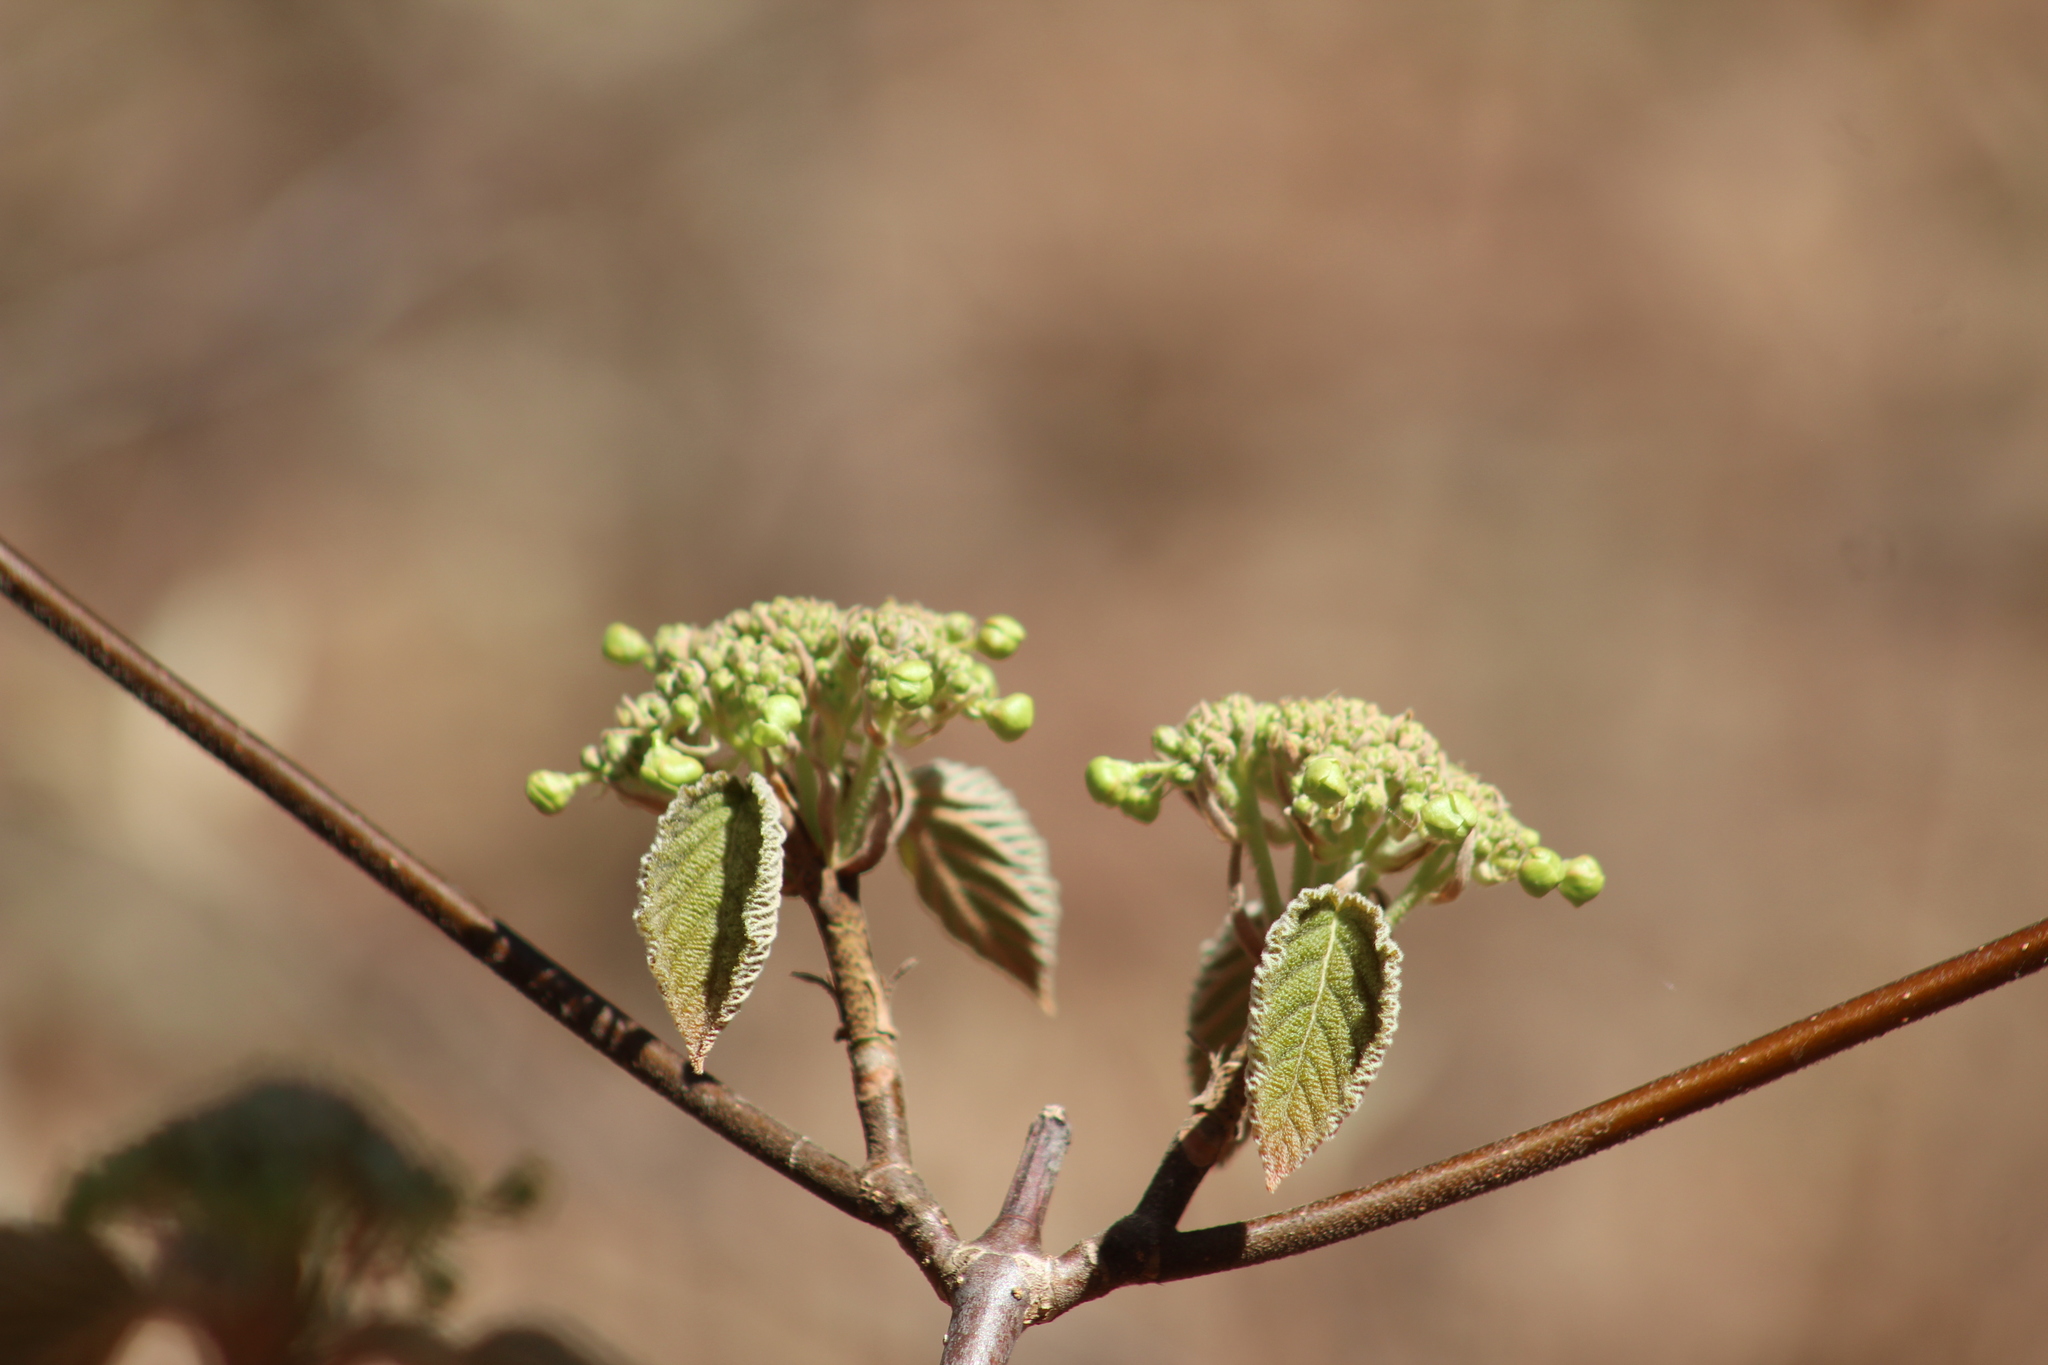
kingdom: Plantae
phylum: Tracheophyta
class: Magnoliopsida
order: Dipsacales
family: Viburnaceae
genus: Viburnum
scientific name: Viburnum lantanoides
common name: Hobblebush
